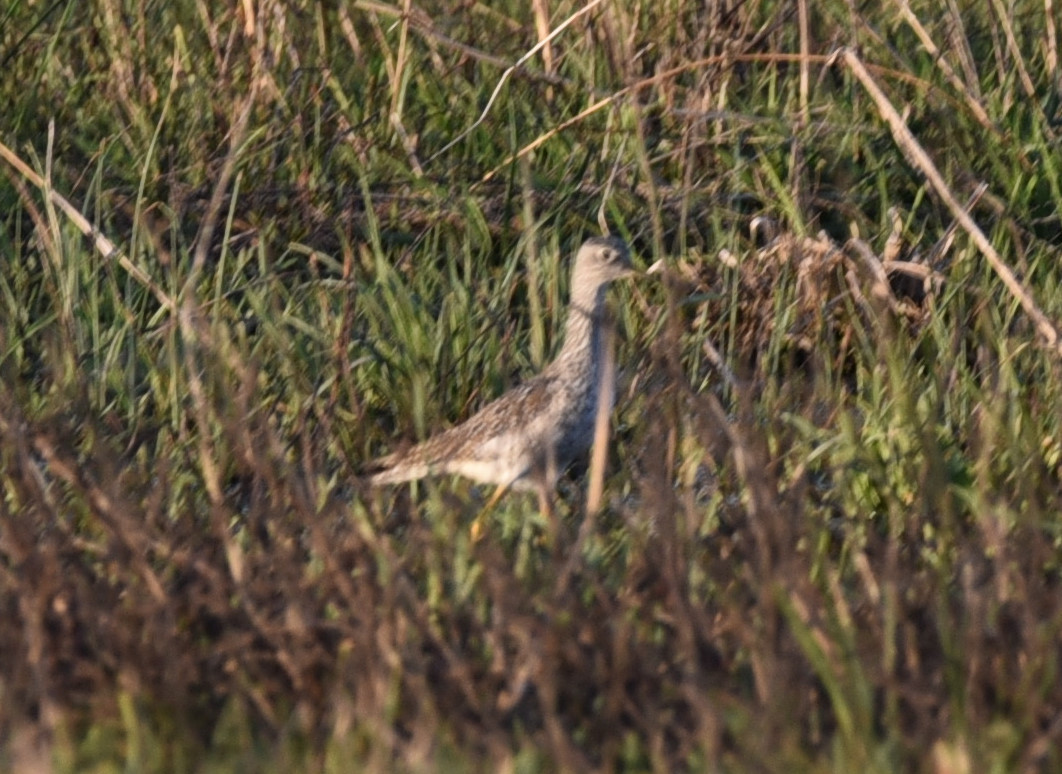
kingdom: Animalia
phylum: Chordata
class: Aves
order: Charadriiformes
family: Scolopacidae
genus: Tringa
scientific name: Tringa flavipes
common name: Lesser yellowlegs
